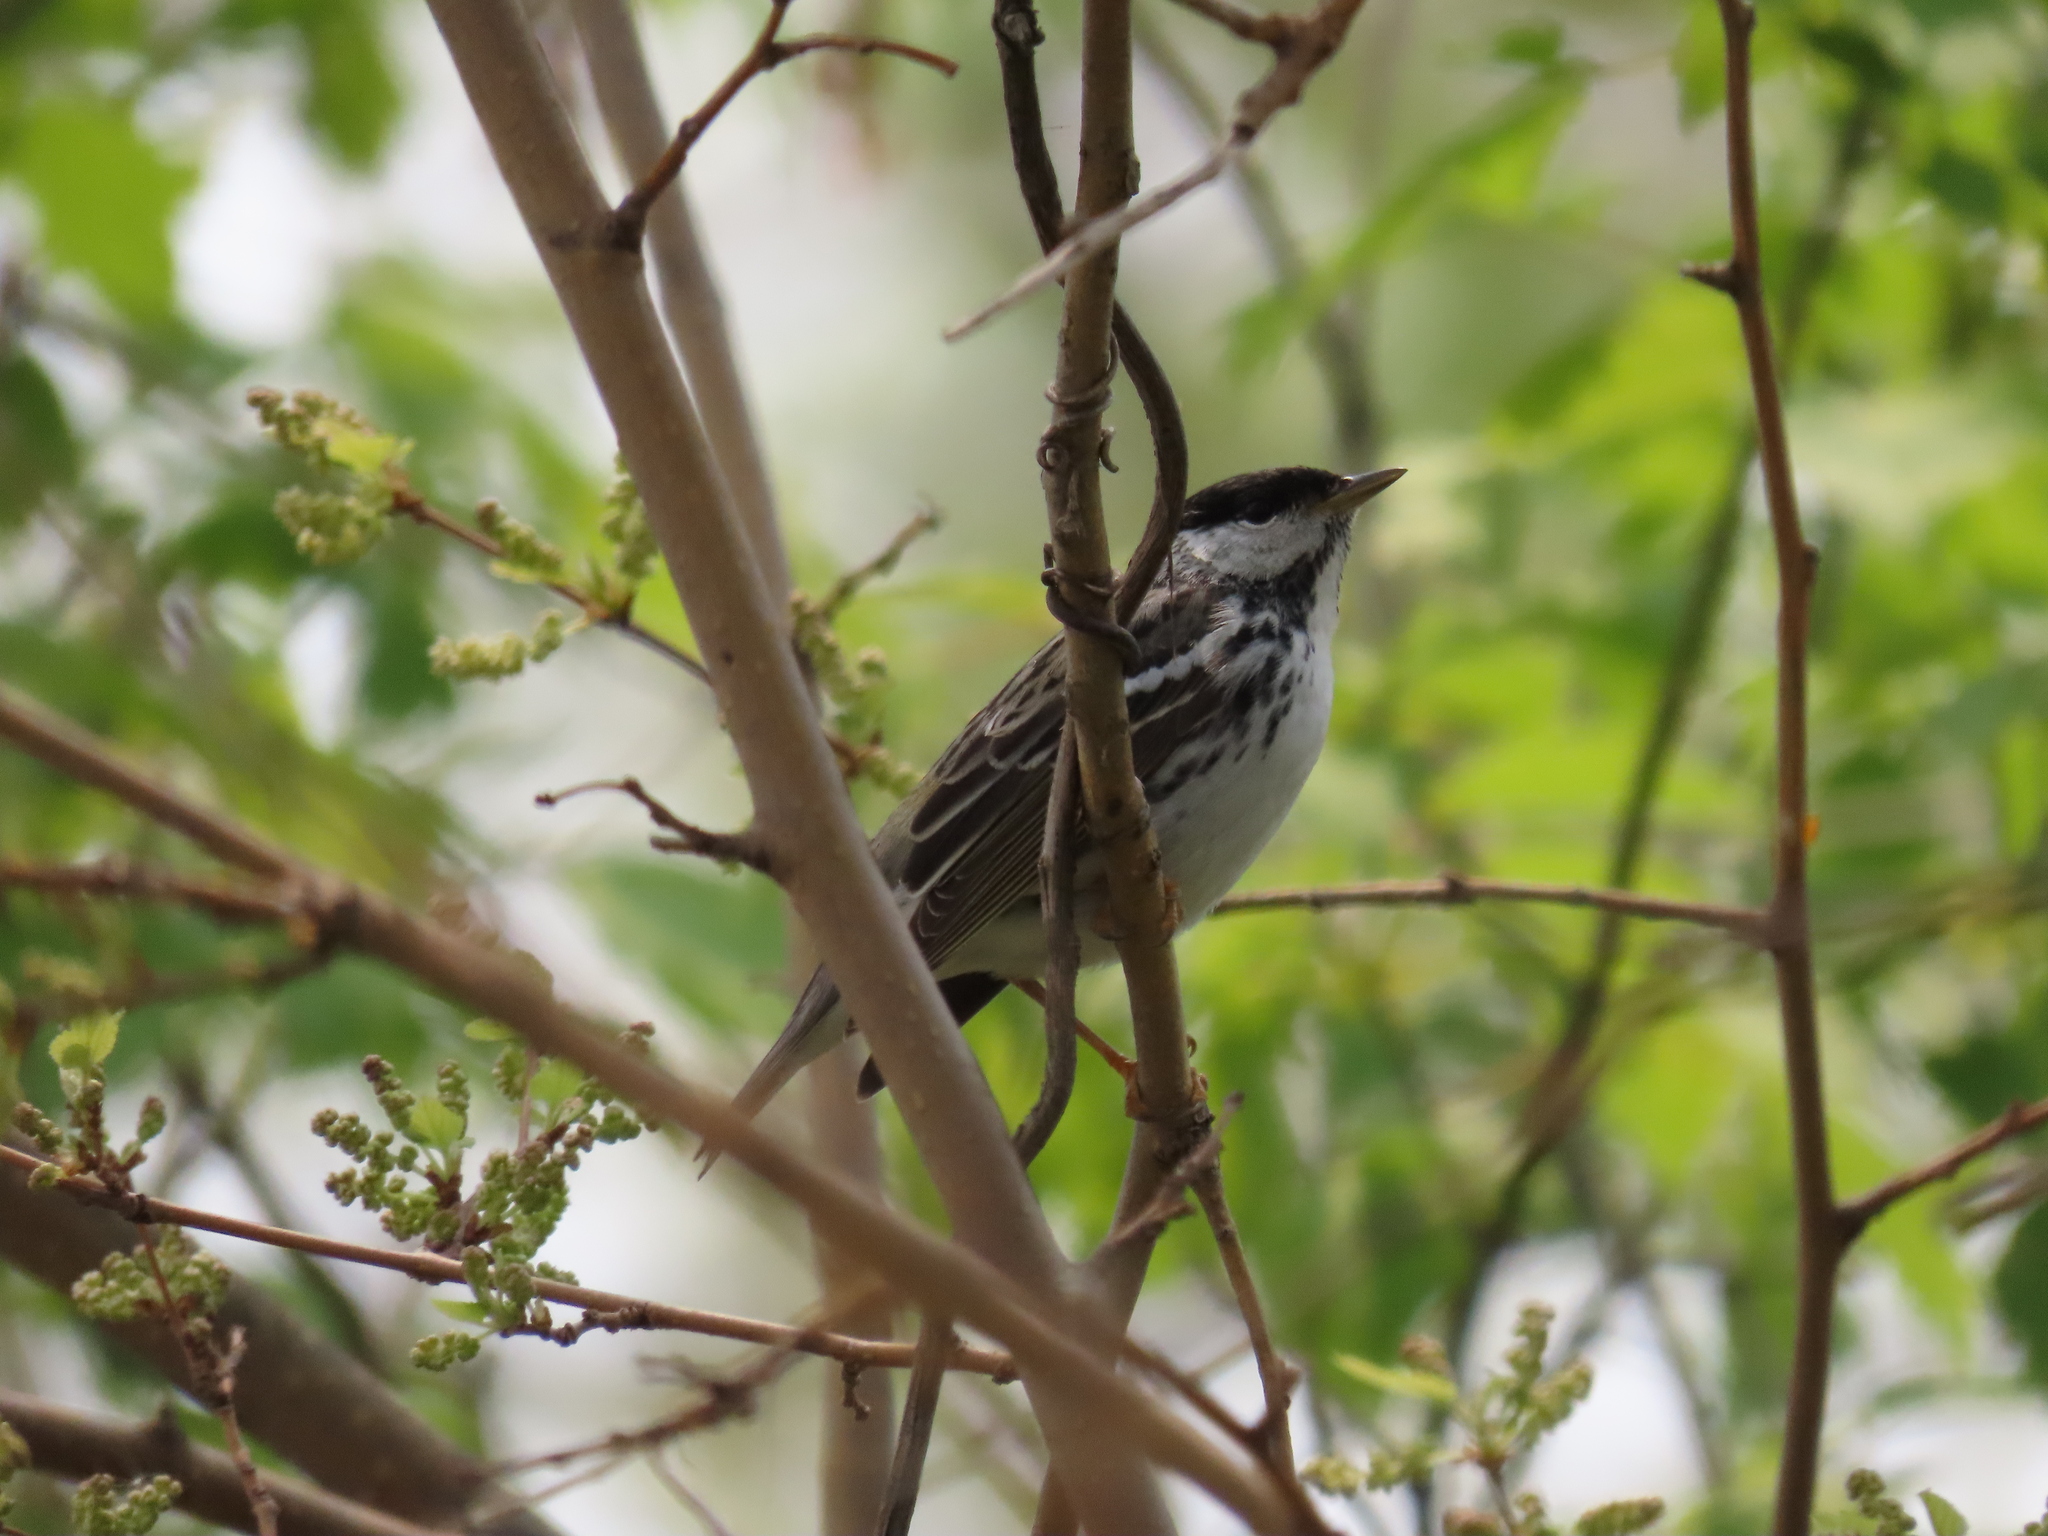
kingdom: Animalia
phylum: Chordata
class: Aves
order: Passeriformes
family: Parulidae
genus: Setophaga
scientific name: Setophaga striata
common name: Blackpoll warbler
